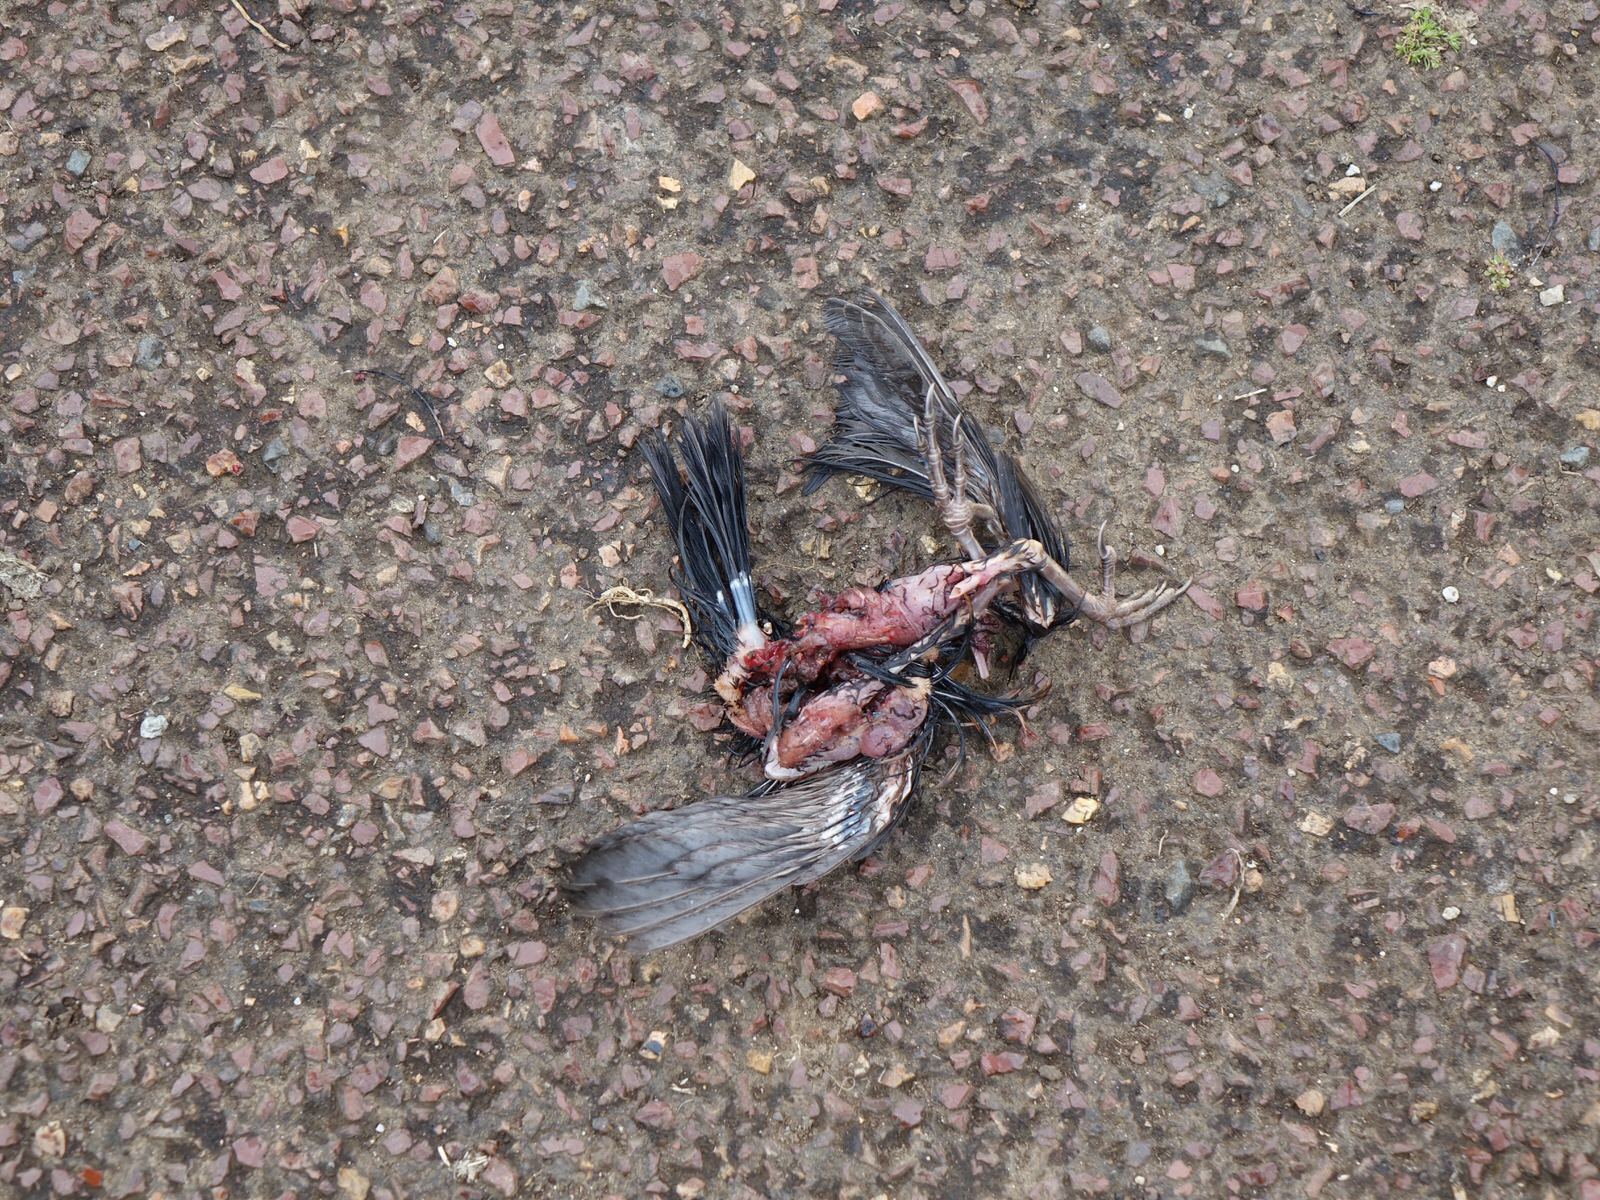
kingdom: Animalia
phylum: Chordata
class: Aves
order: Charadriiformes
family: Laridae
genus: Larus
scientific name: Larus dominicanus
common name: Kelp gull
